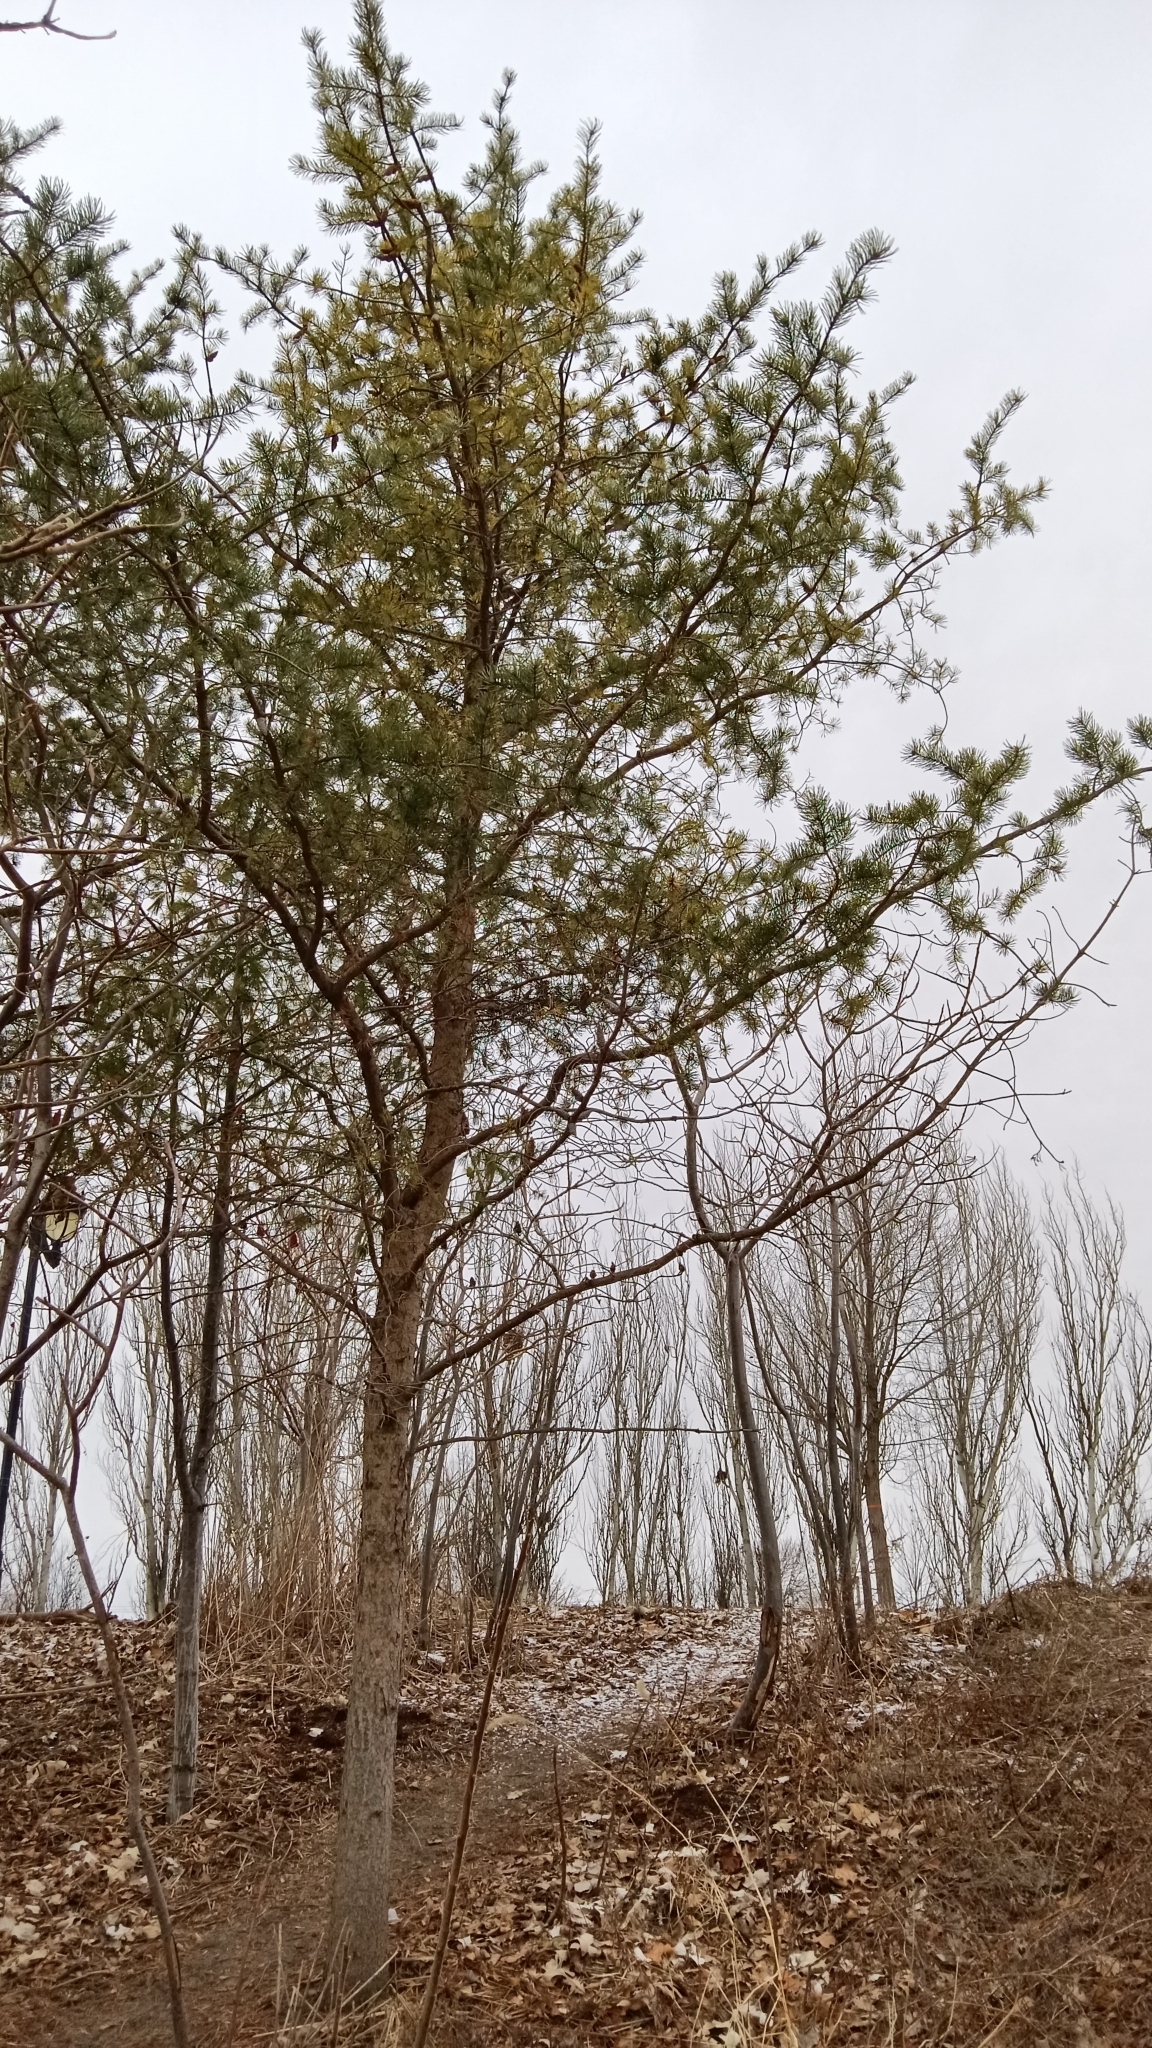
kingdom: Plantae
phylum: Tracheophyta
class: Pinopsida
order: Pinales
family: Pinaceae
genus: Pinus
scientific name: Pinus banksiana
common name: Jack pine
